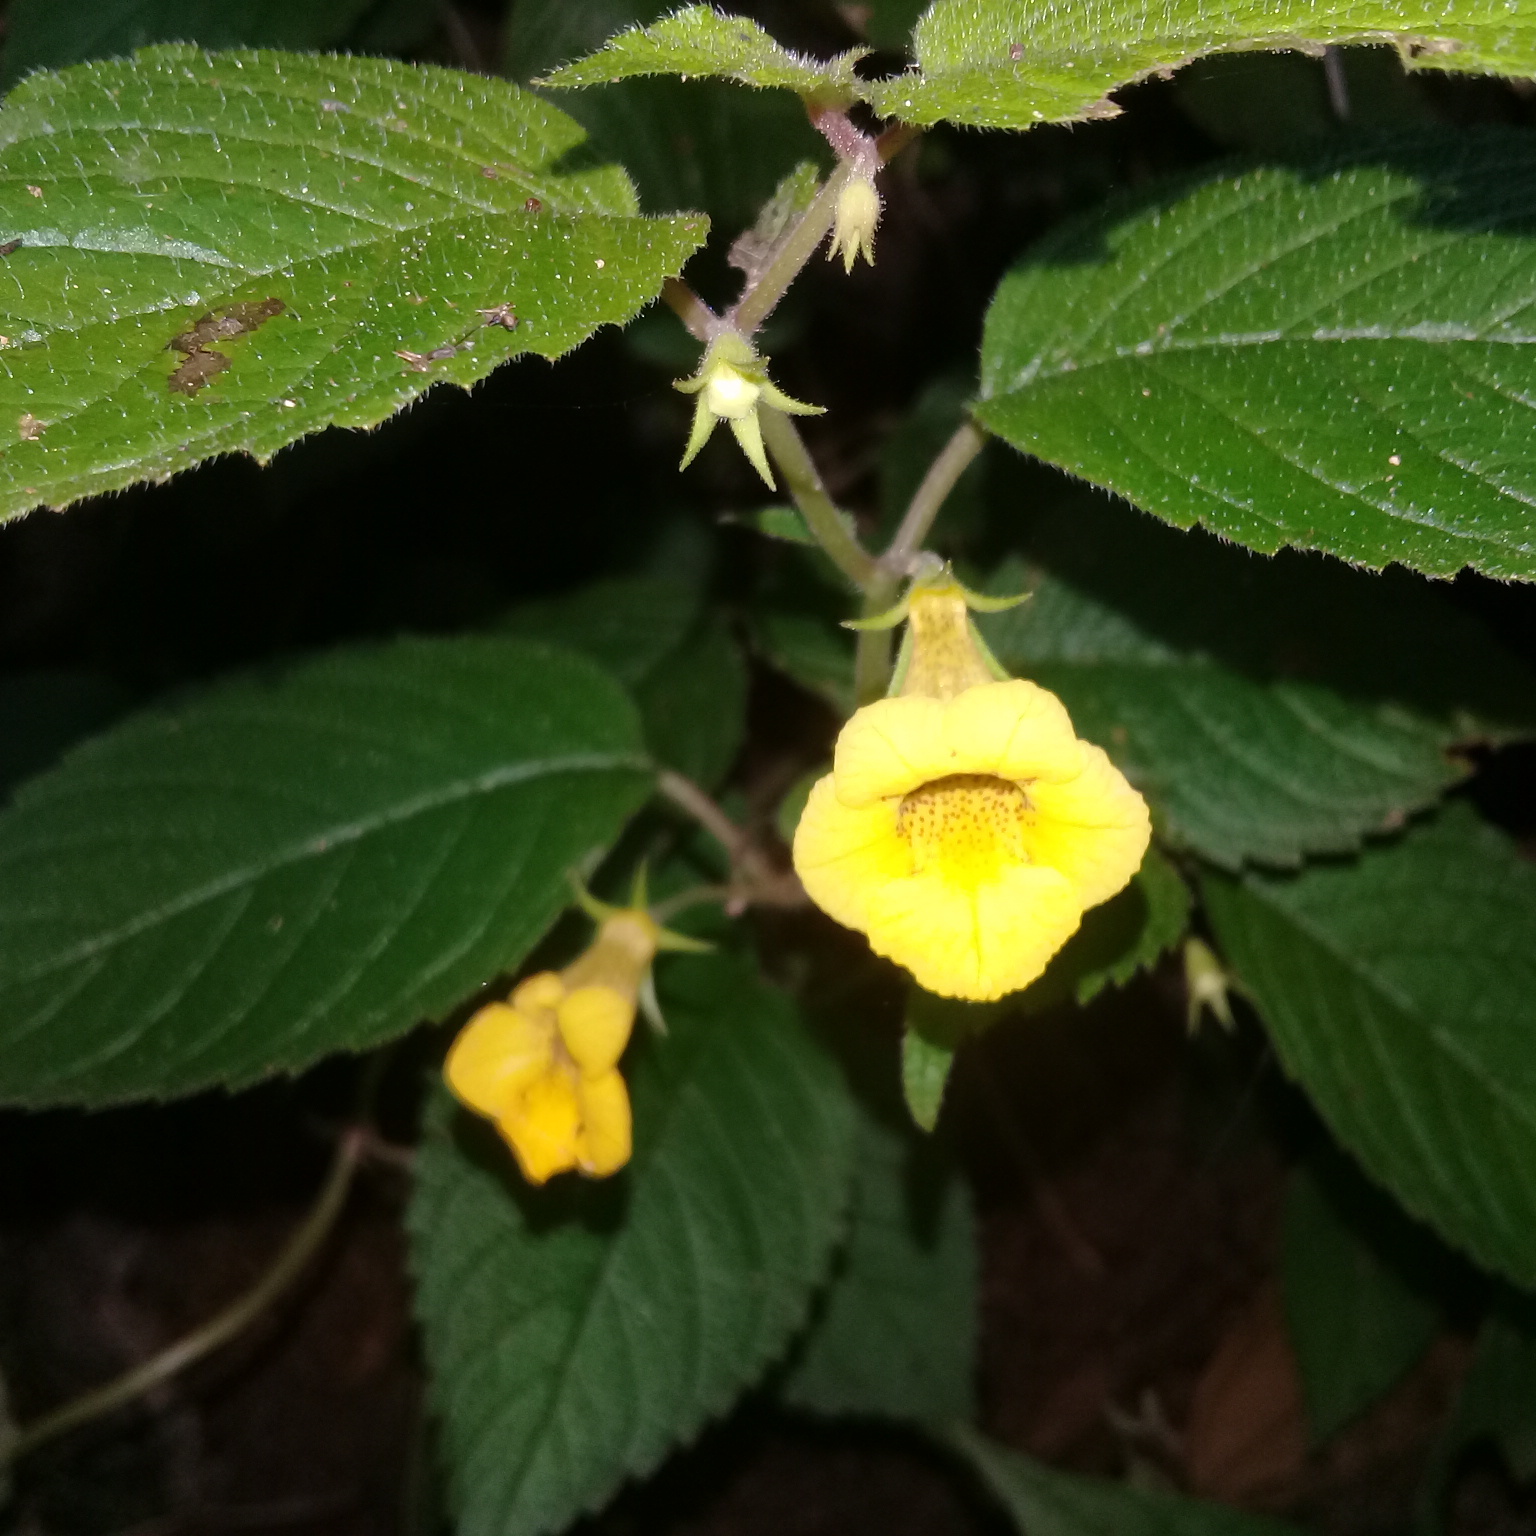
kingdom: Plantae
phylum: Tracheophyta
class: Magnoliopsida
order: Lamiales
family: Gesneriaceae
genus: Achimenes
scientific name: Achimenes flava
